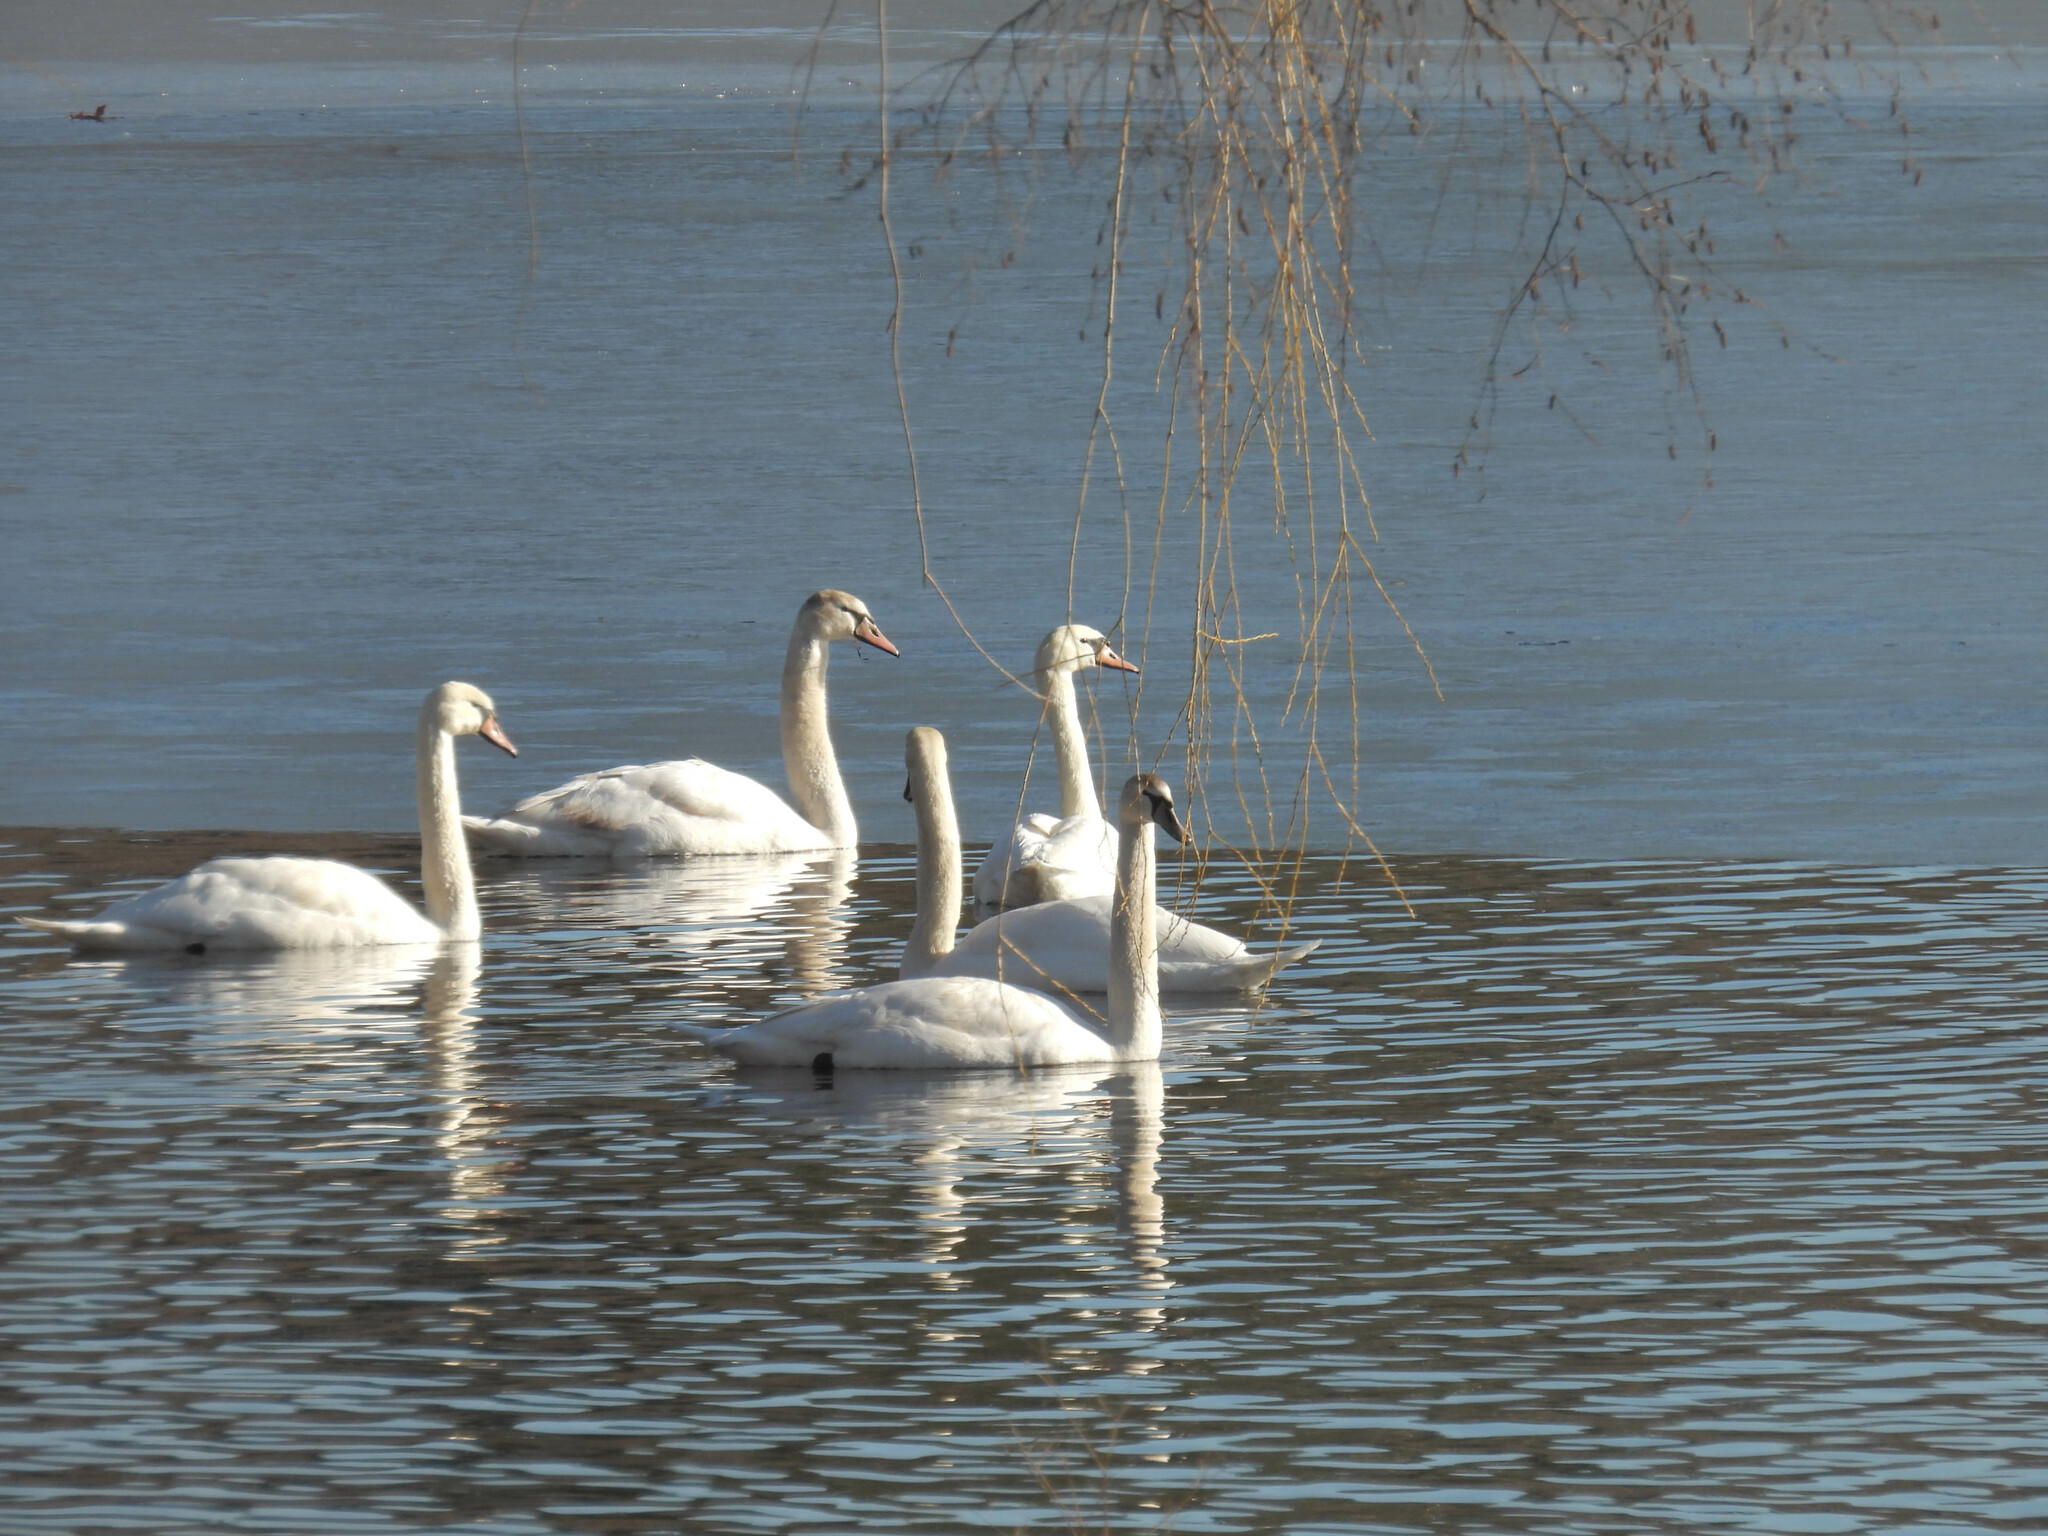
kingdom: Animalia
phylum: Chordata
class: Aves
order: Anseriformes
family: Anatidae
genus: Cygnus
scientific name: Cygnus olor
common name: Mute swan
